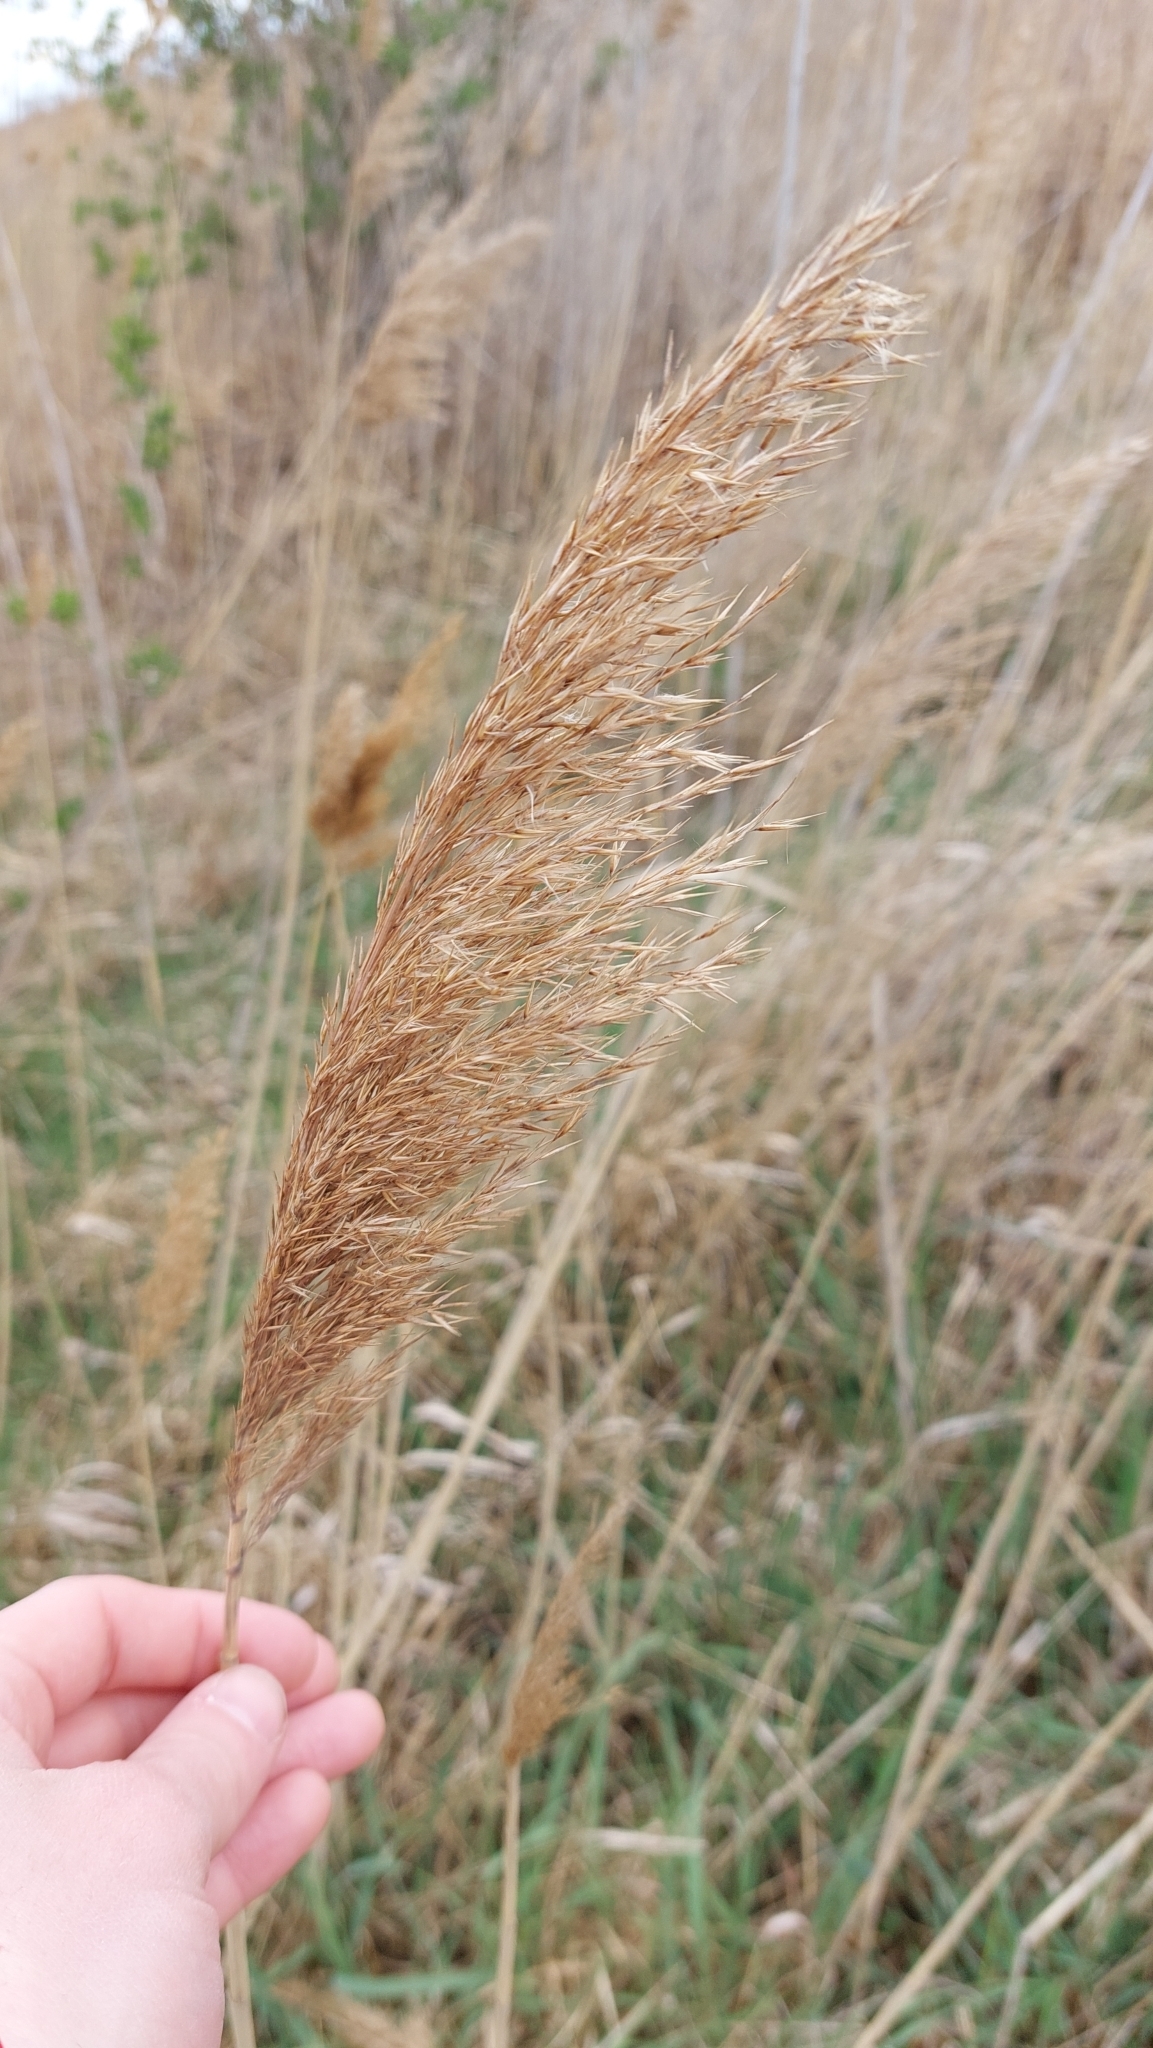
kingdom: Plantae
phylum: Tracheophyta
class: Liliopsida
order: Poales
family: Poaceae
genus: Phragmites
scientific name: Phragmites australis
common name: Common reed
